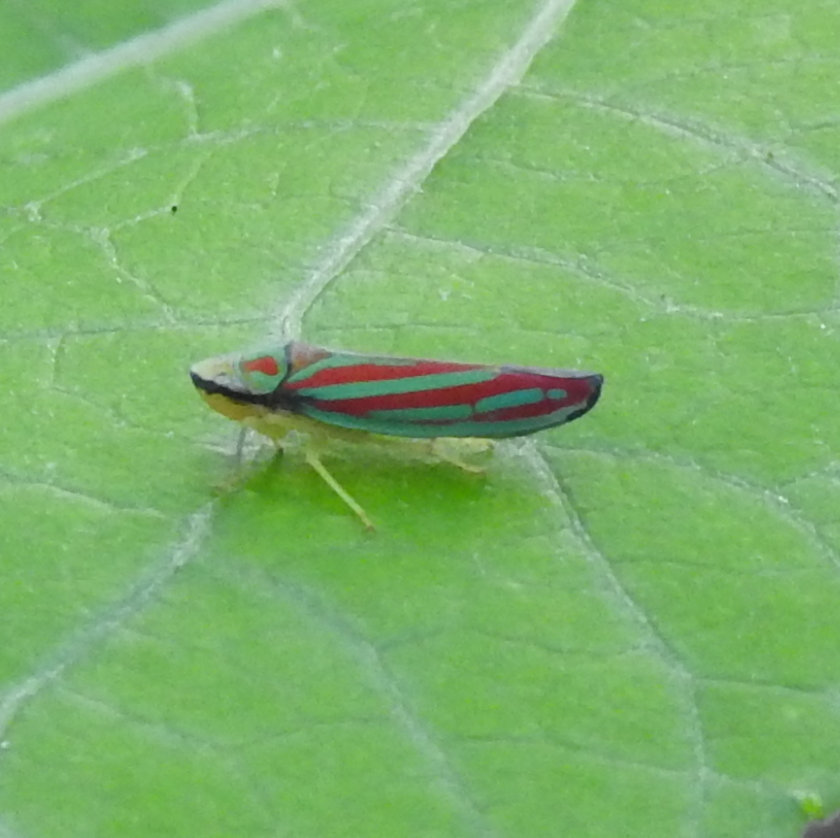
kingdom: Animalia
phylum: Arthropoda
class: Insecta
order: Hemiptera
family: Cicadellidae
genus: Graphocephala
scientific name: Graphocephala coccinea
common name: Candy-striped leafhopper
